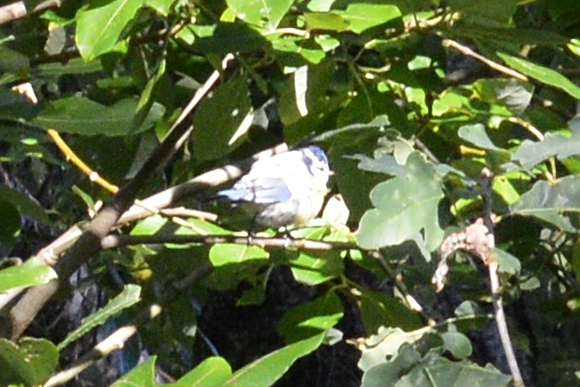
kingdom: Animalia
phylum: Chordata
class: Aves
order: Passeriformes
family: Paridae
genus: Cyanistes
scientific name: Cyanistes caeruleus
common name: Eurasian blue tit
